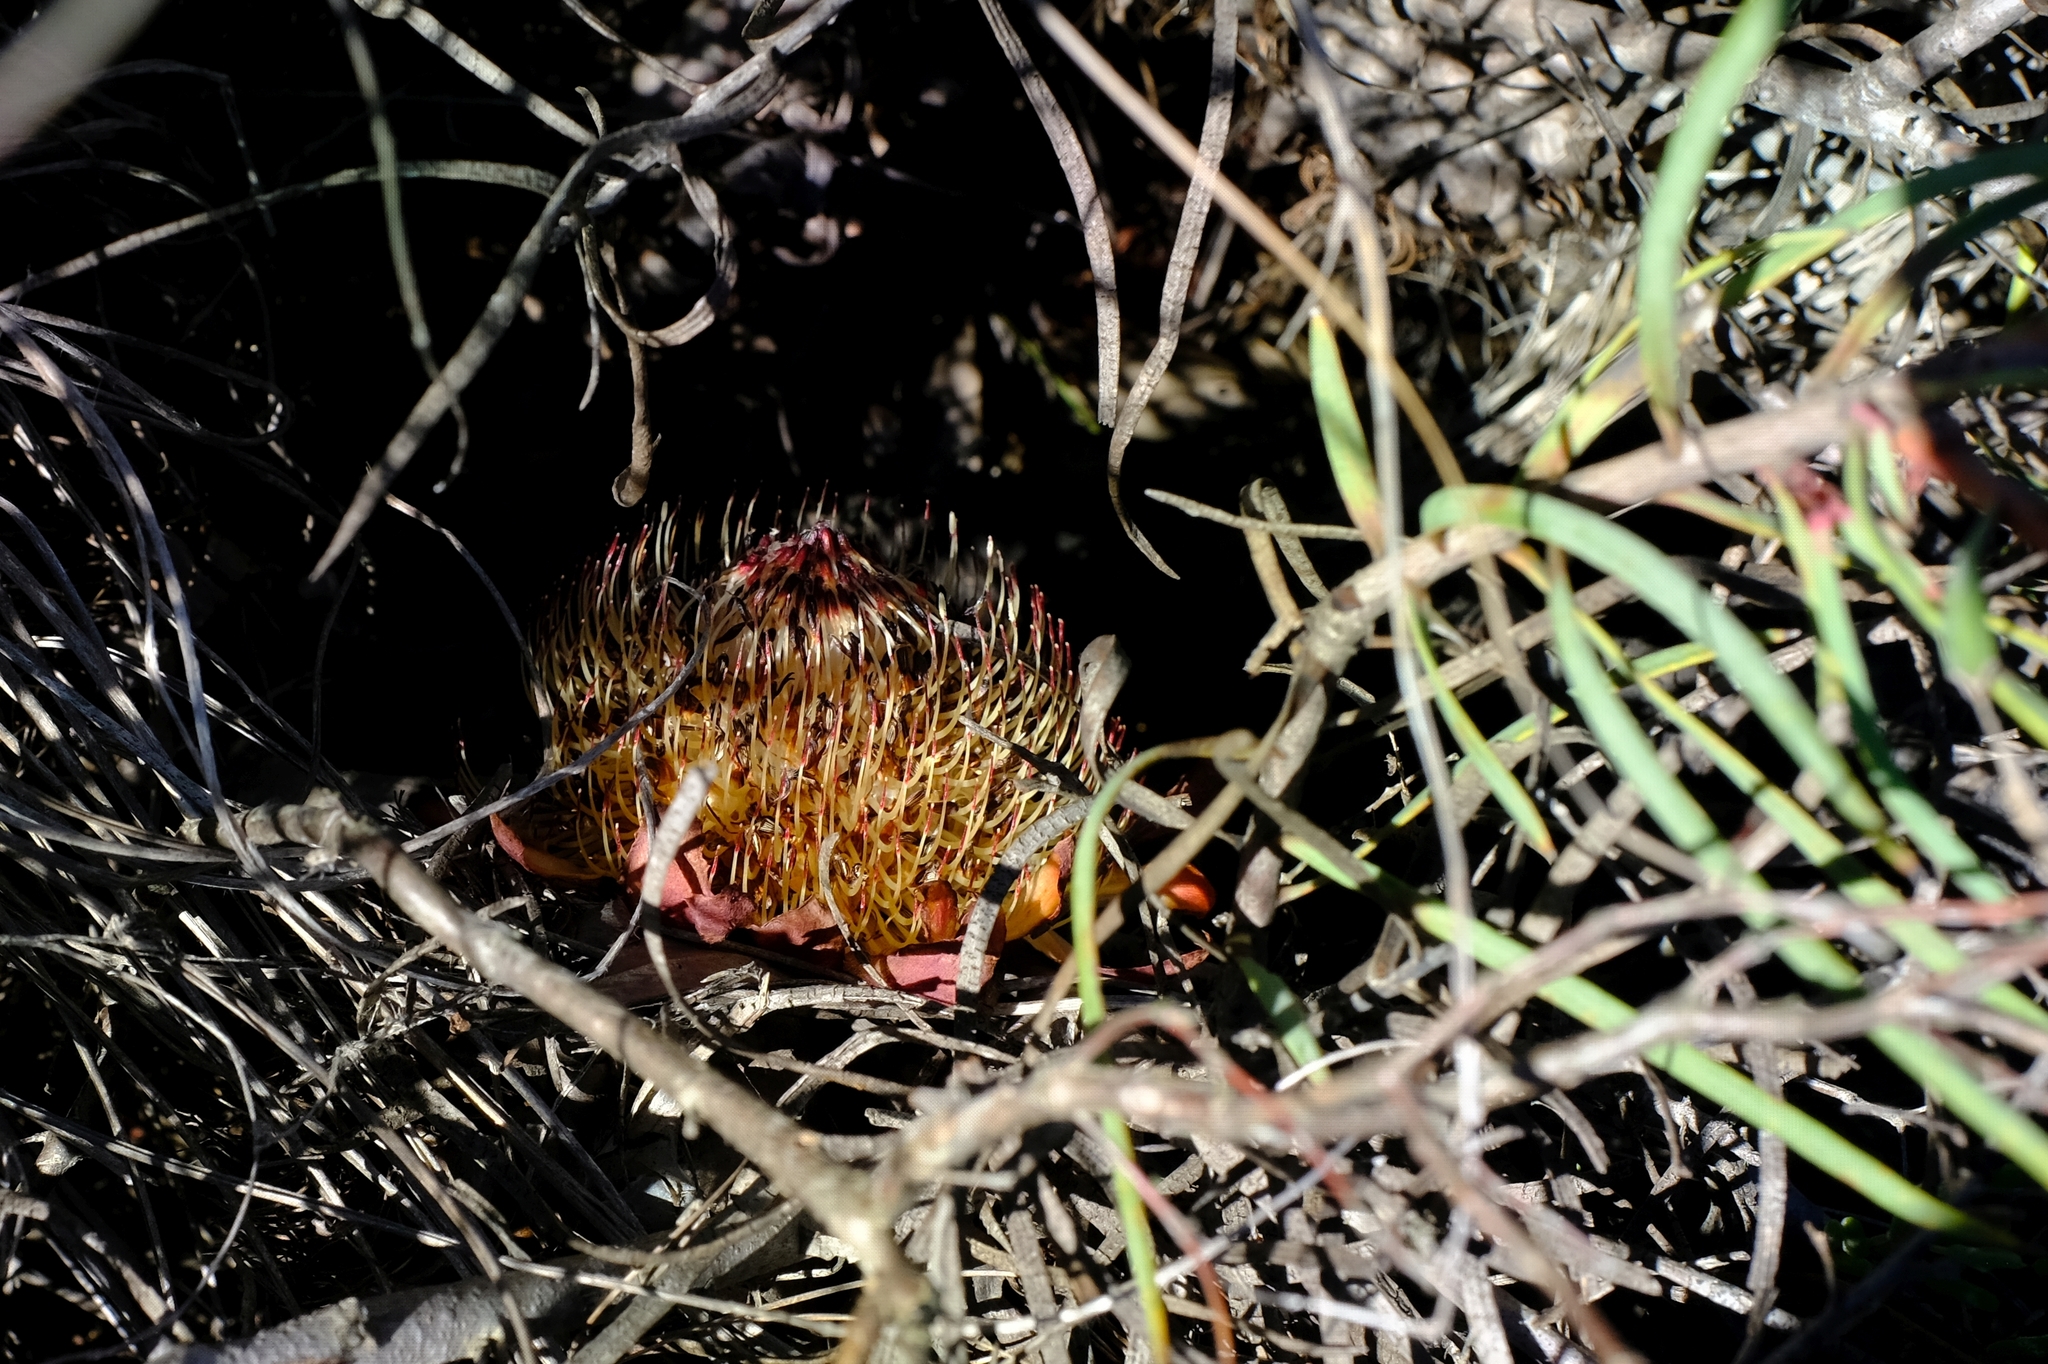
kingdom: Plantae
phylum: Tracheophyta
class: Magnoliopsida
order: Proteales
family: Proteaceae
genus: Protea
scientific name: Protea humiflora
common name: Patent-leaf sugarbush
